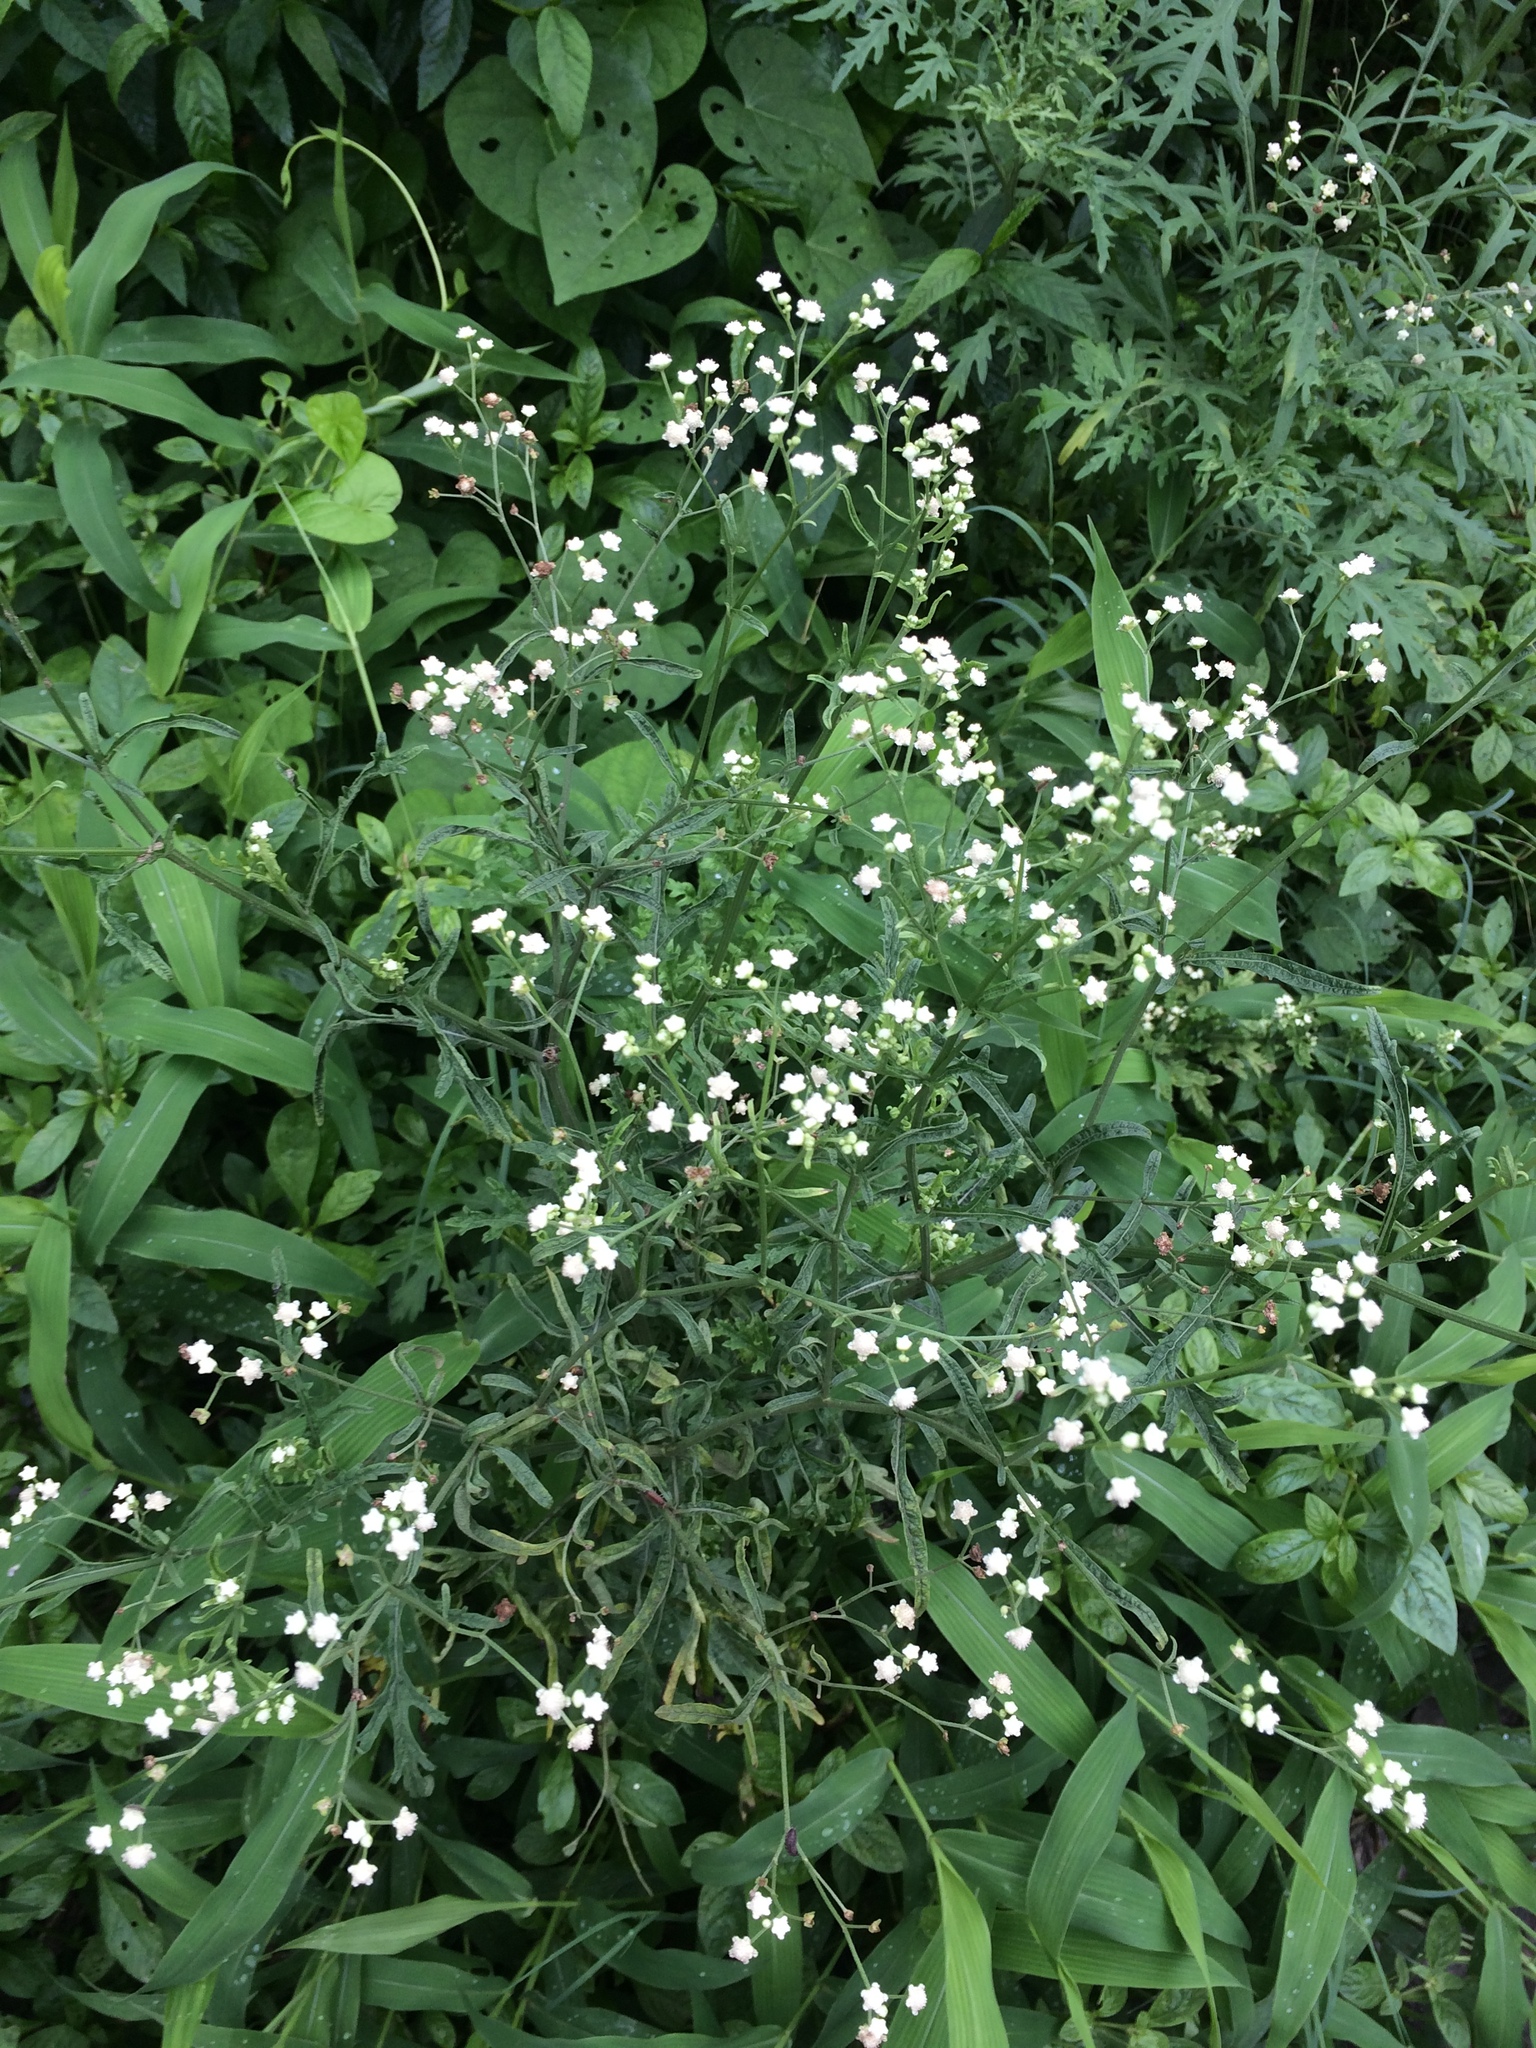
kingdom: Plantae
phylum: Tracheophyta
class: Magnoliopsida
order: Asterales
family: Asteraceae
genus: Parthenium
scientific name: Parthenium hysterophorus
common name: Santa maria feverfew
